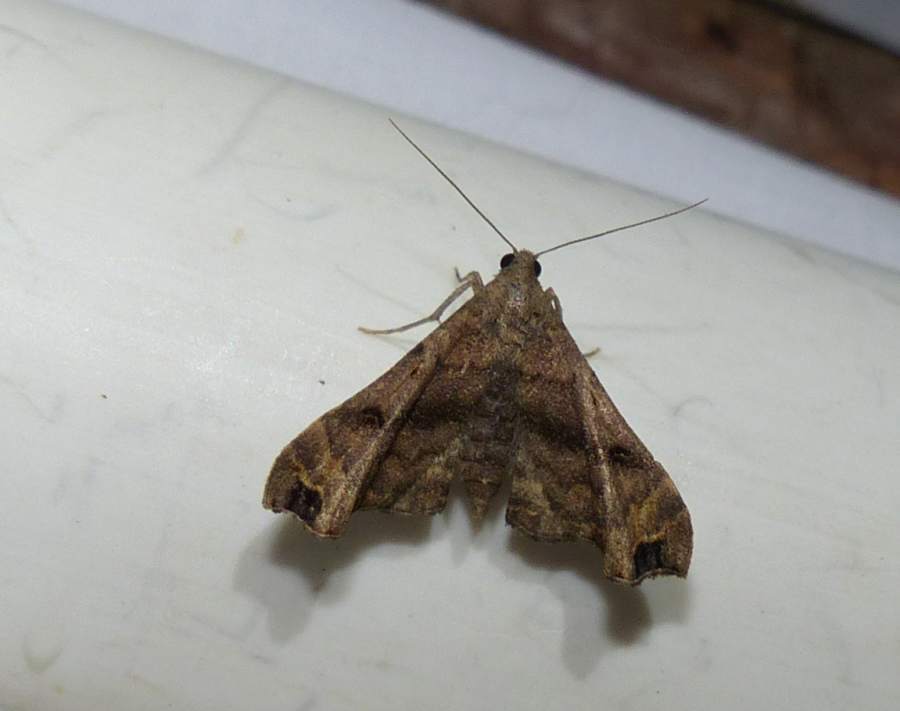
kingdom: Animalia
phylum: Arthropoda
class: Insecta
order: Lepidoptera
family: Erebidae
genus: Palthis
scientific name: Palthis asopialis
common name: Faint-spotted palthis moth
